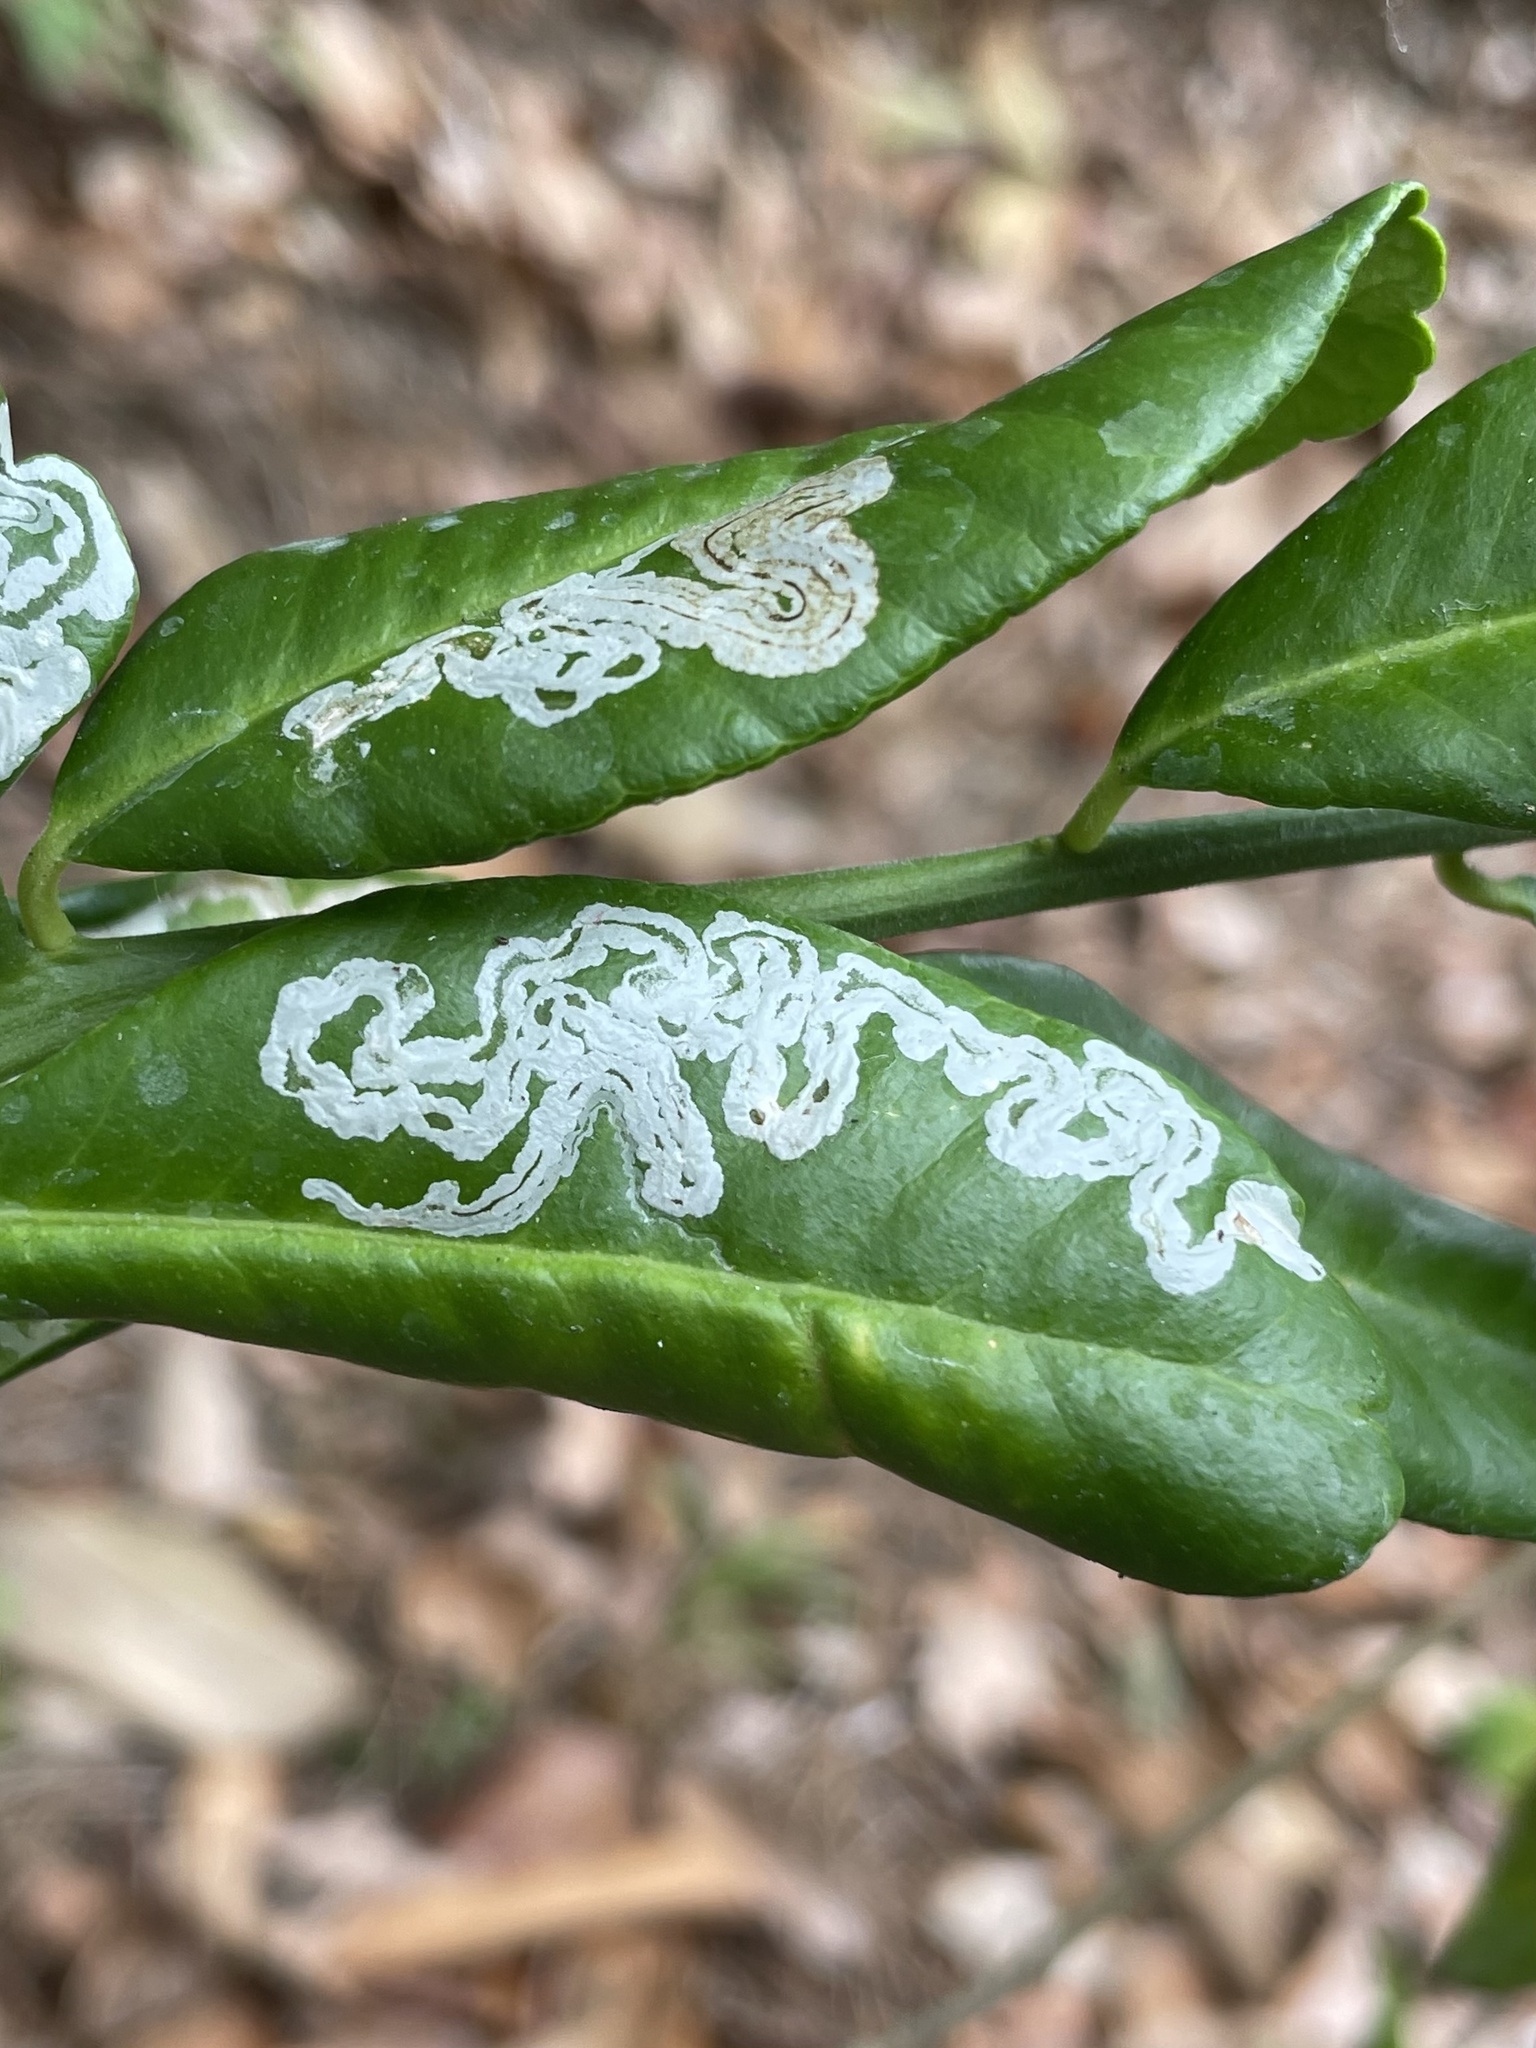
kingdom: Animalia
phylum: Arthropoda
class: Insecta
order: Lepidoptera
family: Gracillariidae
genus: Phyllocnistis
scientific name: Phyllocnistis citrella
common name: Citrus leafminer
